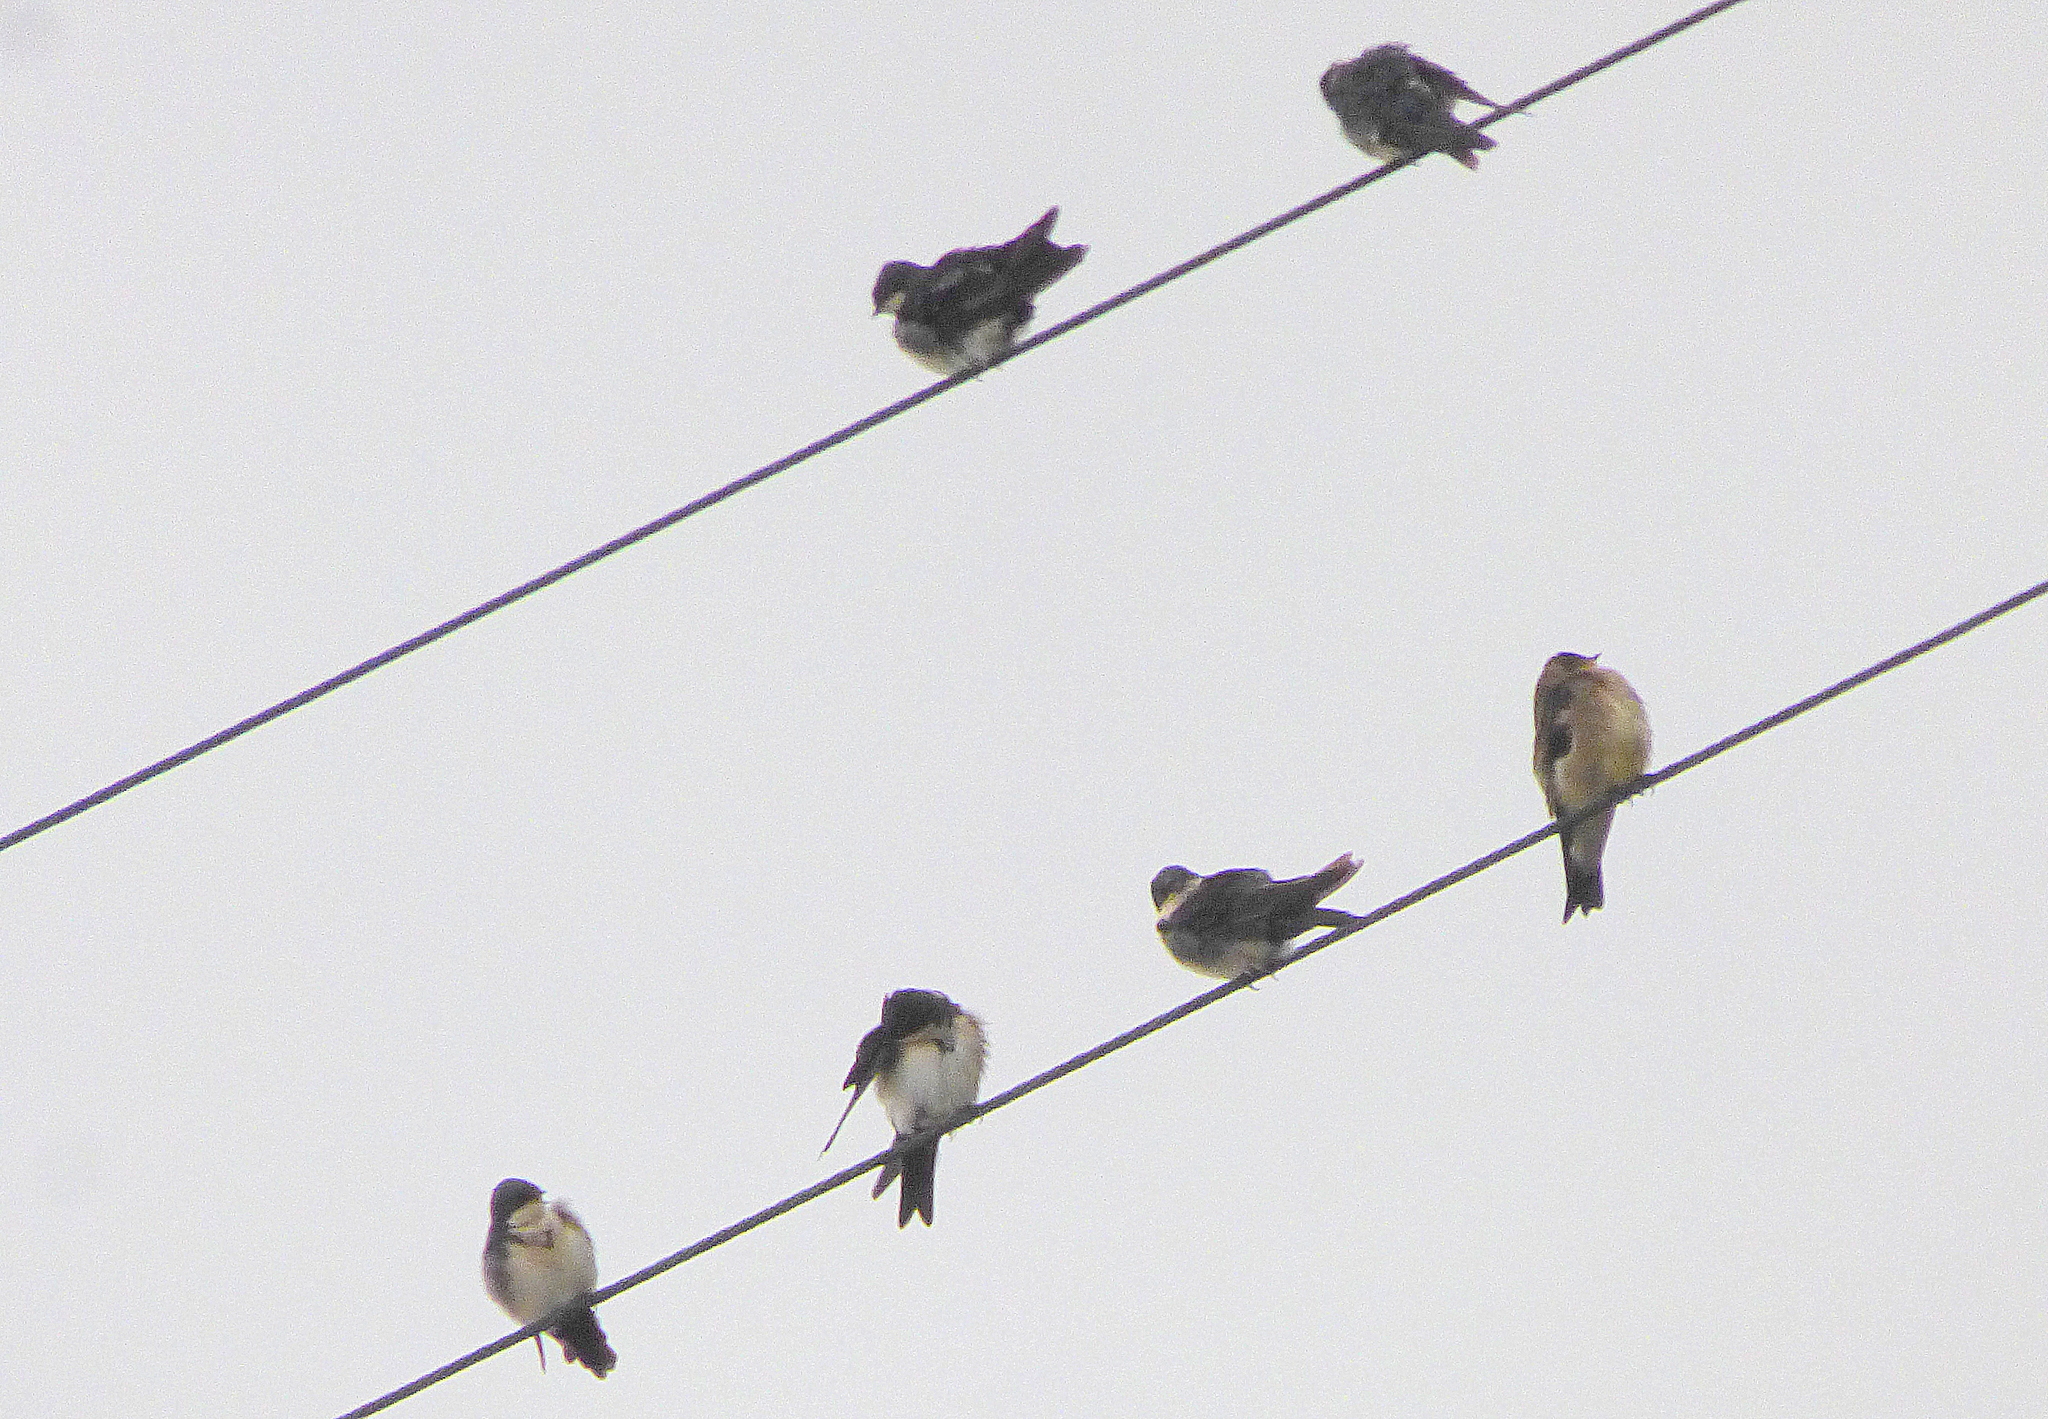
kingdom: Animalia
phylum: Chordata
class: Aves
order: Passeriformes
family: Hirundinidae
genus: Notiochelidon
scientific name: Notiochelidon cyanoleuca
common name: Blue-and-white swallow
